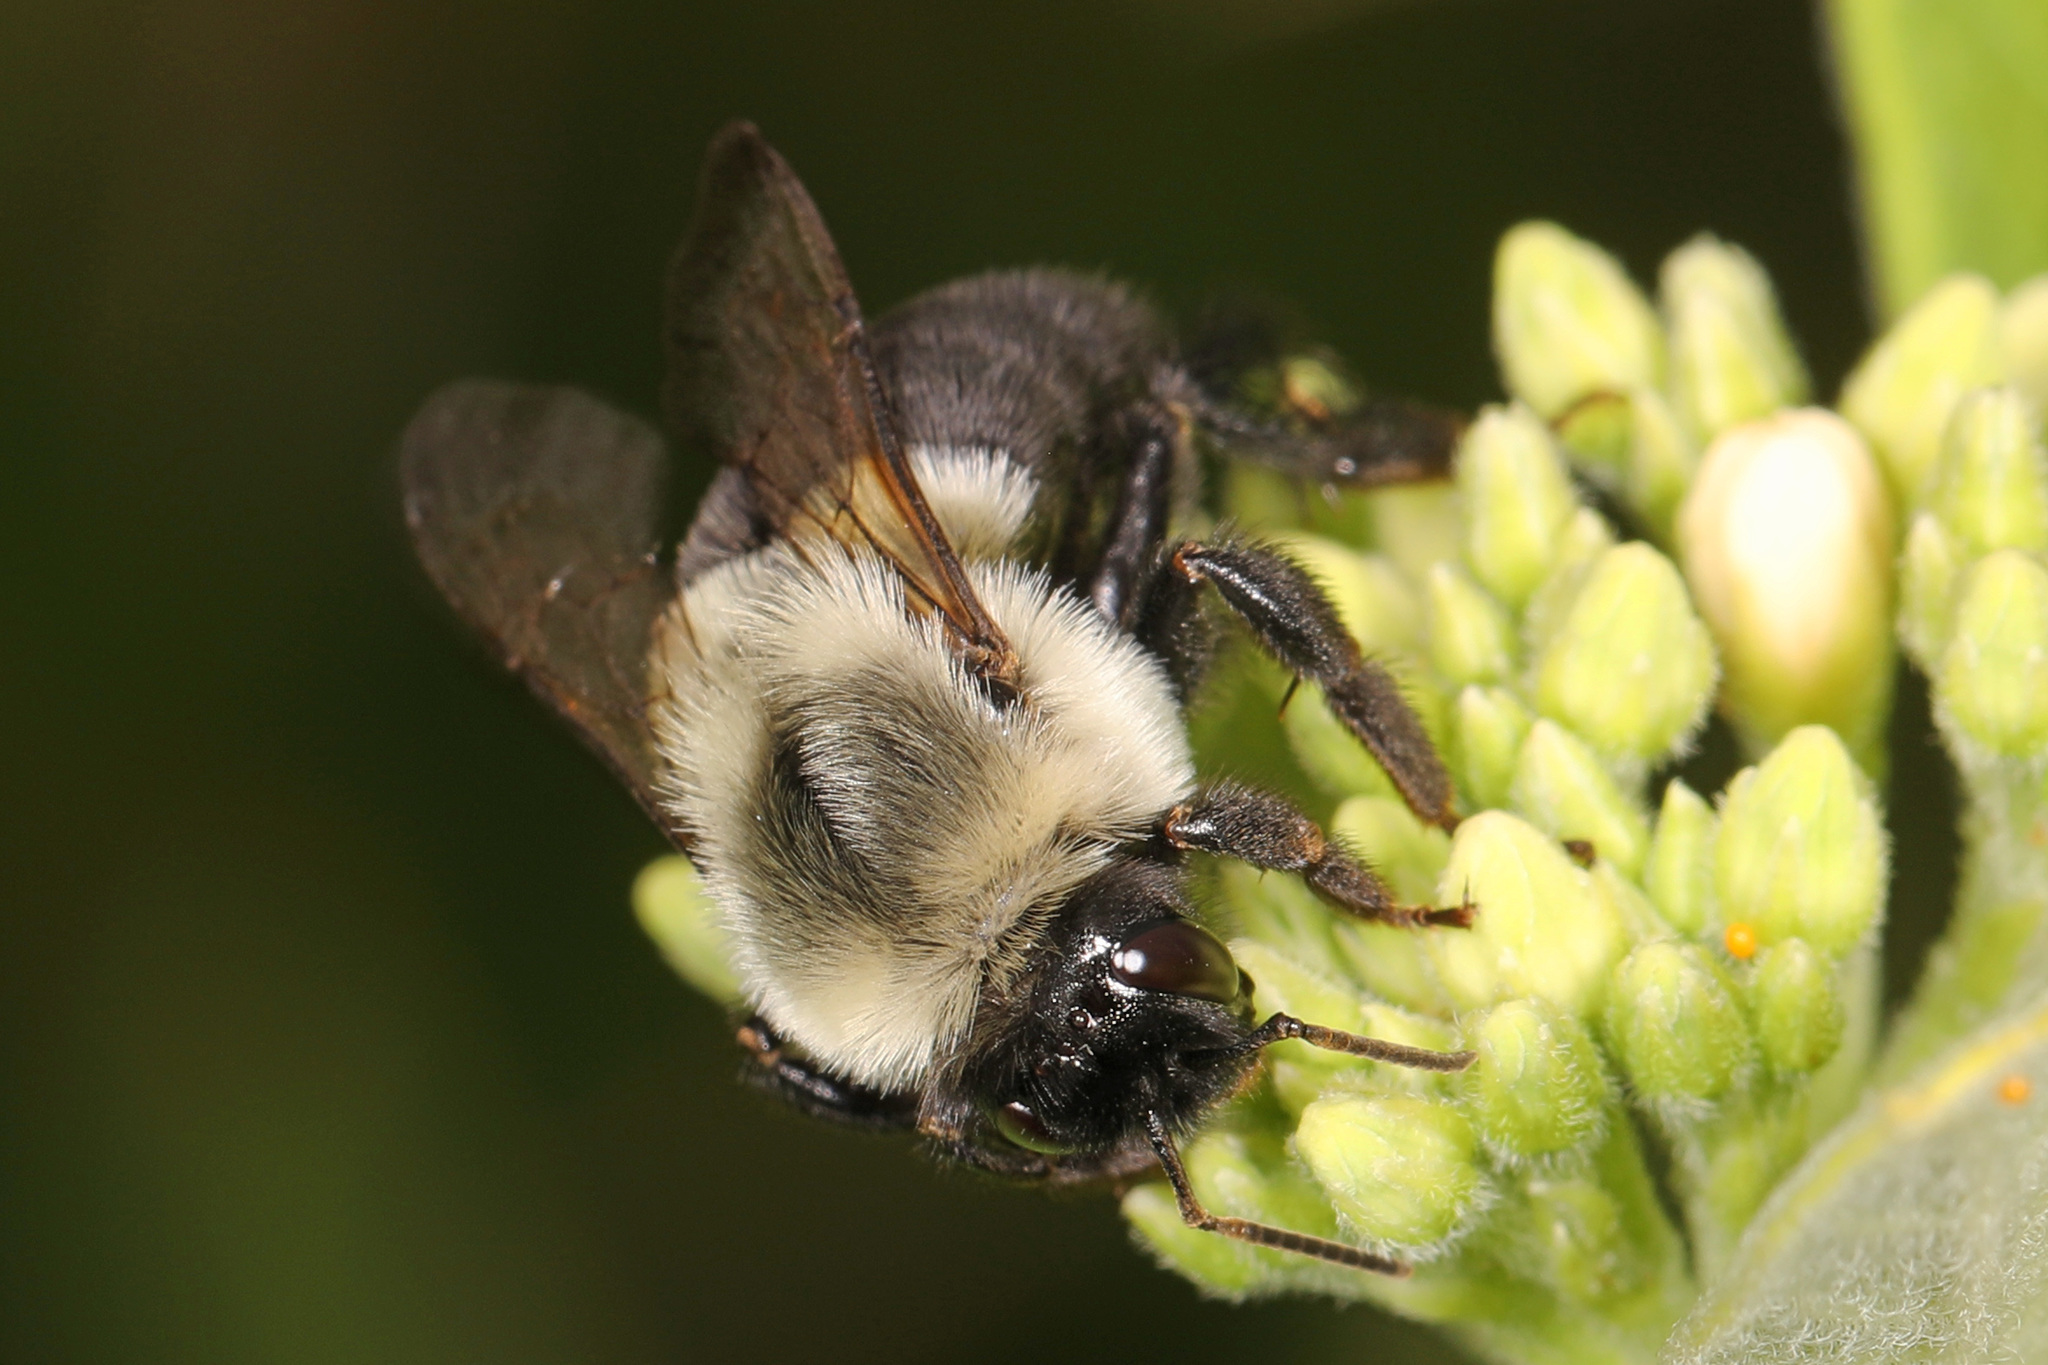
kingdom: Animalia
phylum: Arthropoda
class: Insecta
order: Hymenoptera
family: Apidae
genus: Bombus
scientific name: Bombus impatiens
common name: Common eastern bumble bee
